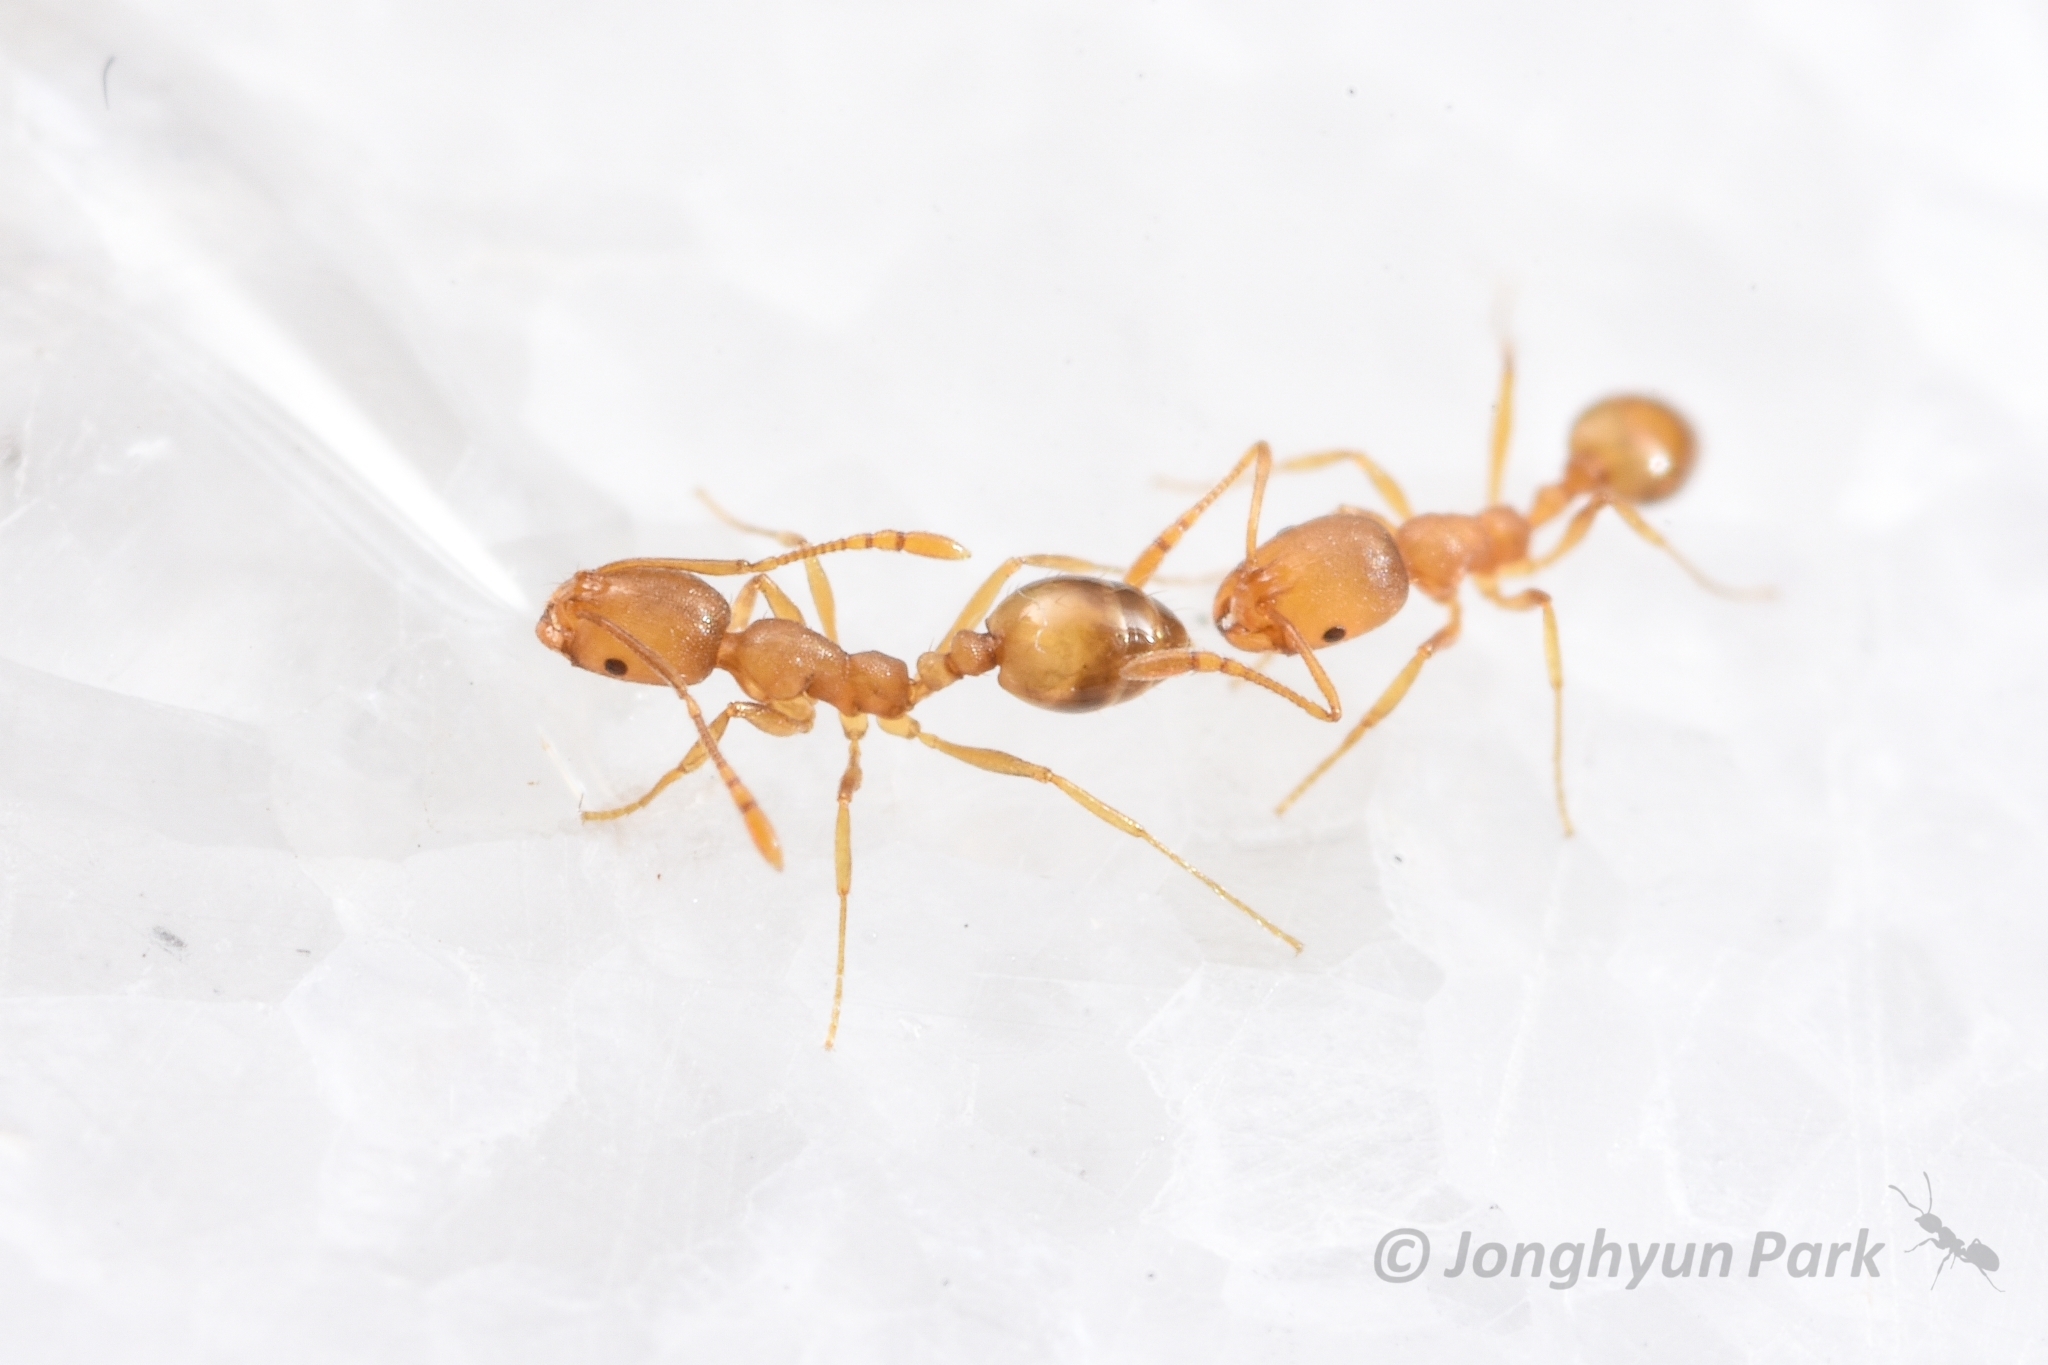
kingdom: Animalia
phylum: Arthropoda
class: Insecta
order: Hymenoptera
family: Formicidae
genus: Monomorium
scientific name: Monomorium pharaonis
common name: Pharaoh ant
